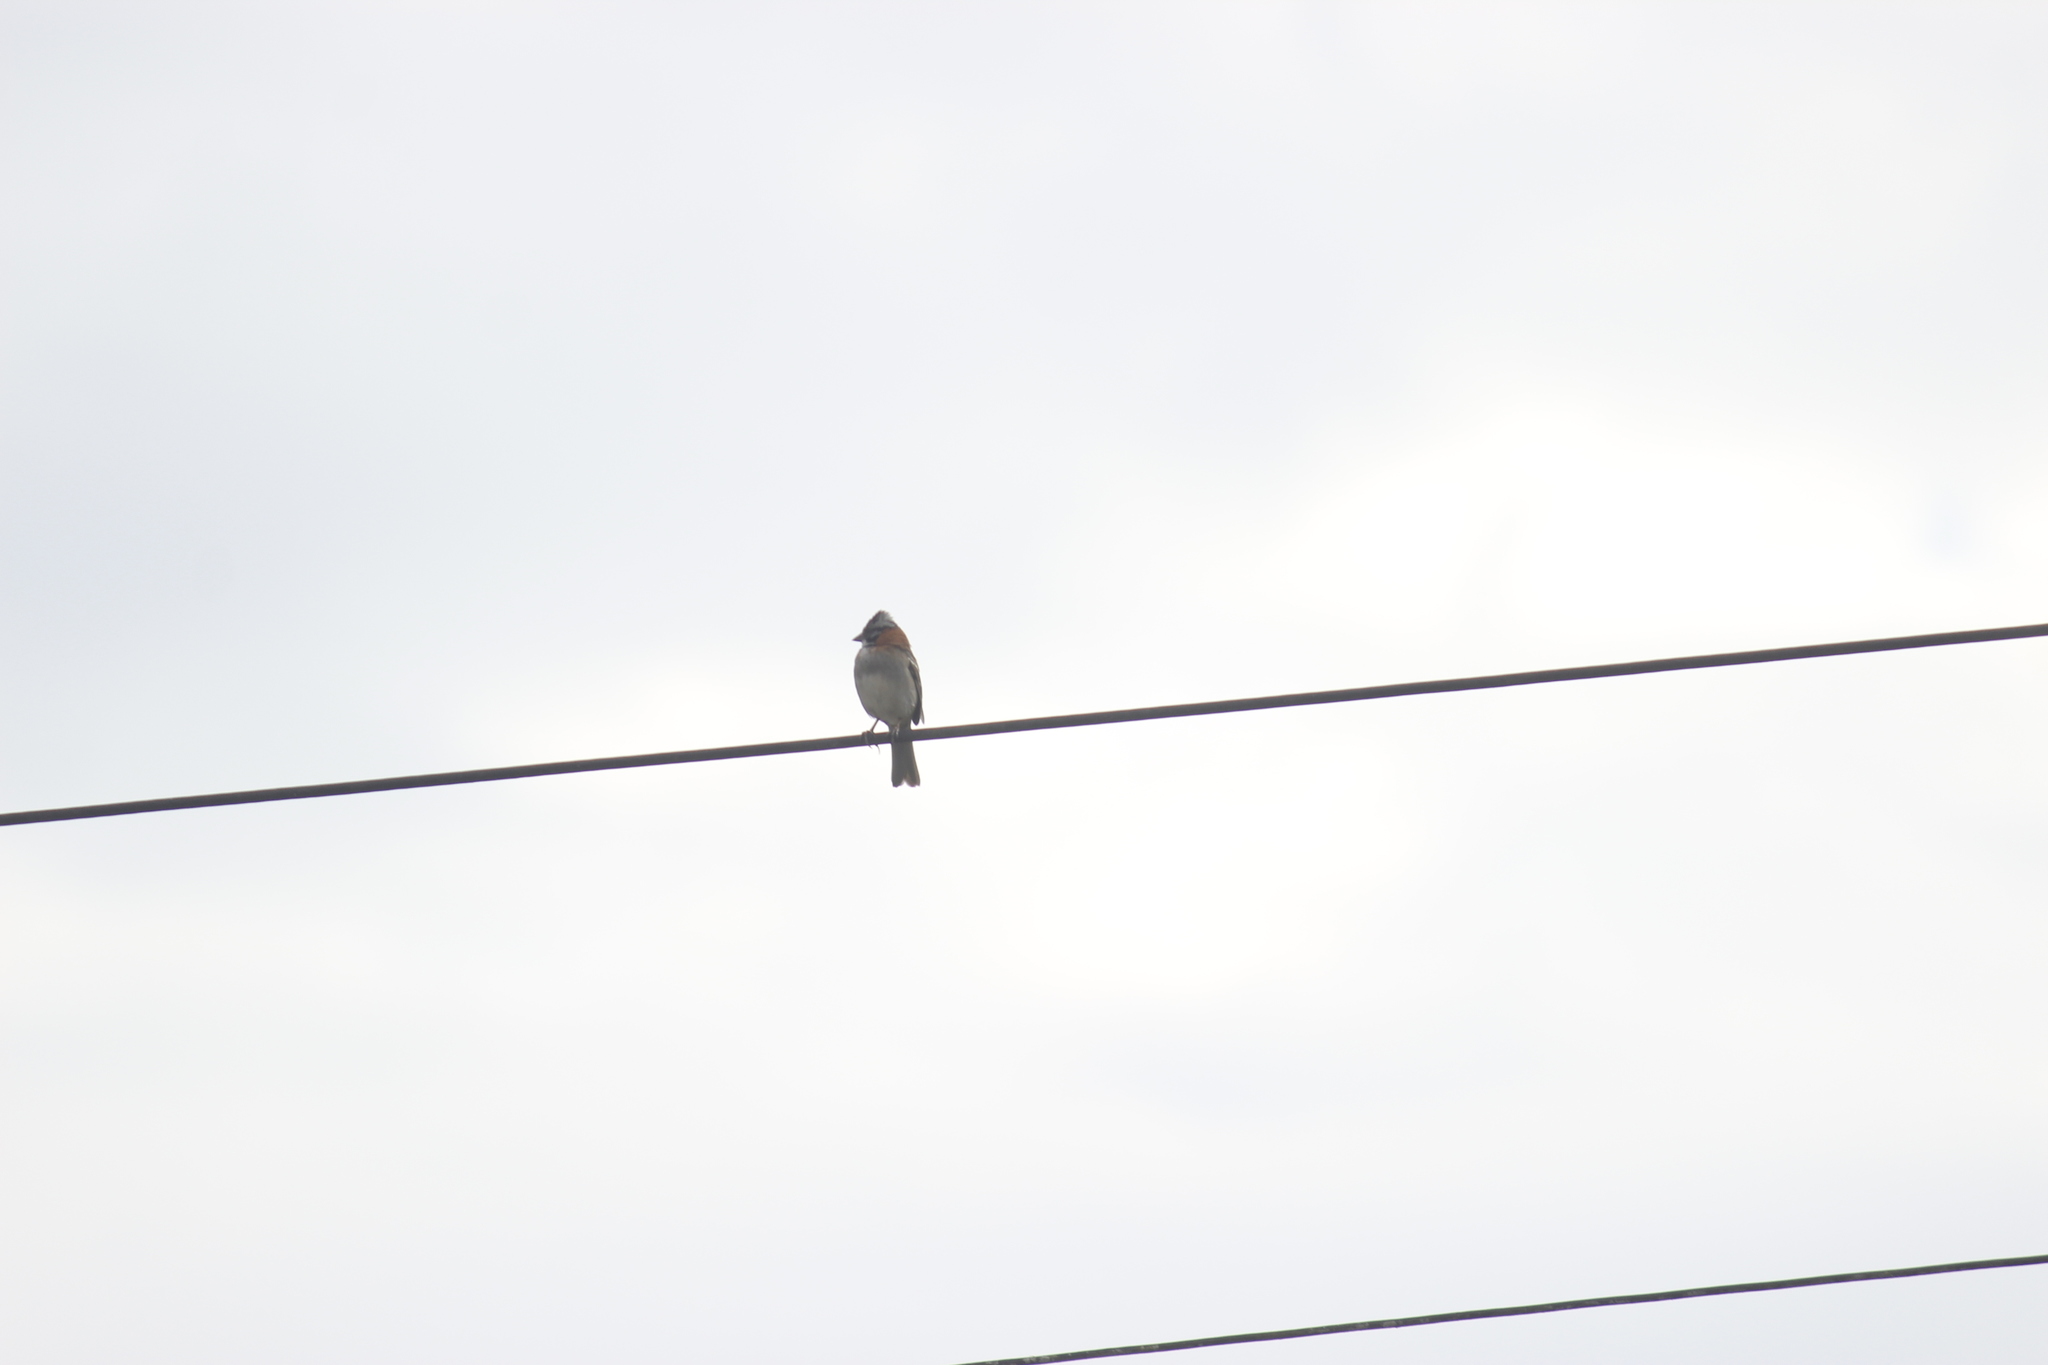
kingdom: Animalia
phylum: Chordata
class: Aves
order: Passeriformes
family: Passerellidae
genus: Zonotrichia
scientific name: Zonotrichia capensis
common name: Rufous-collared sparrow
